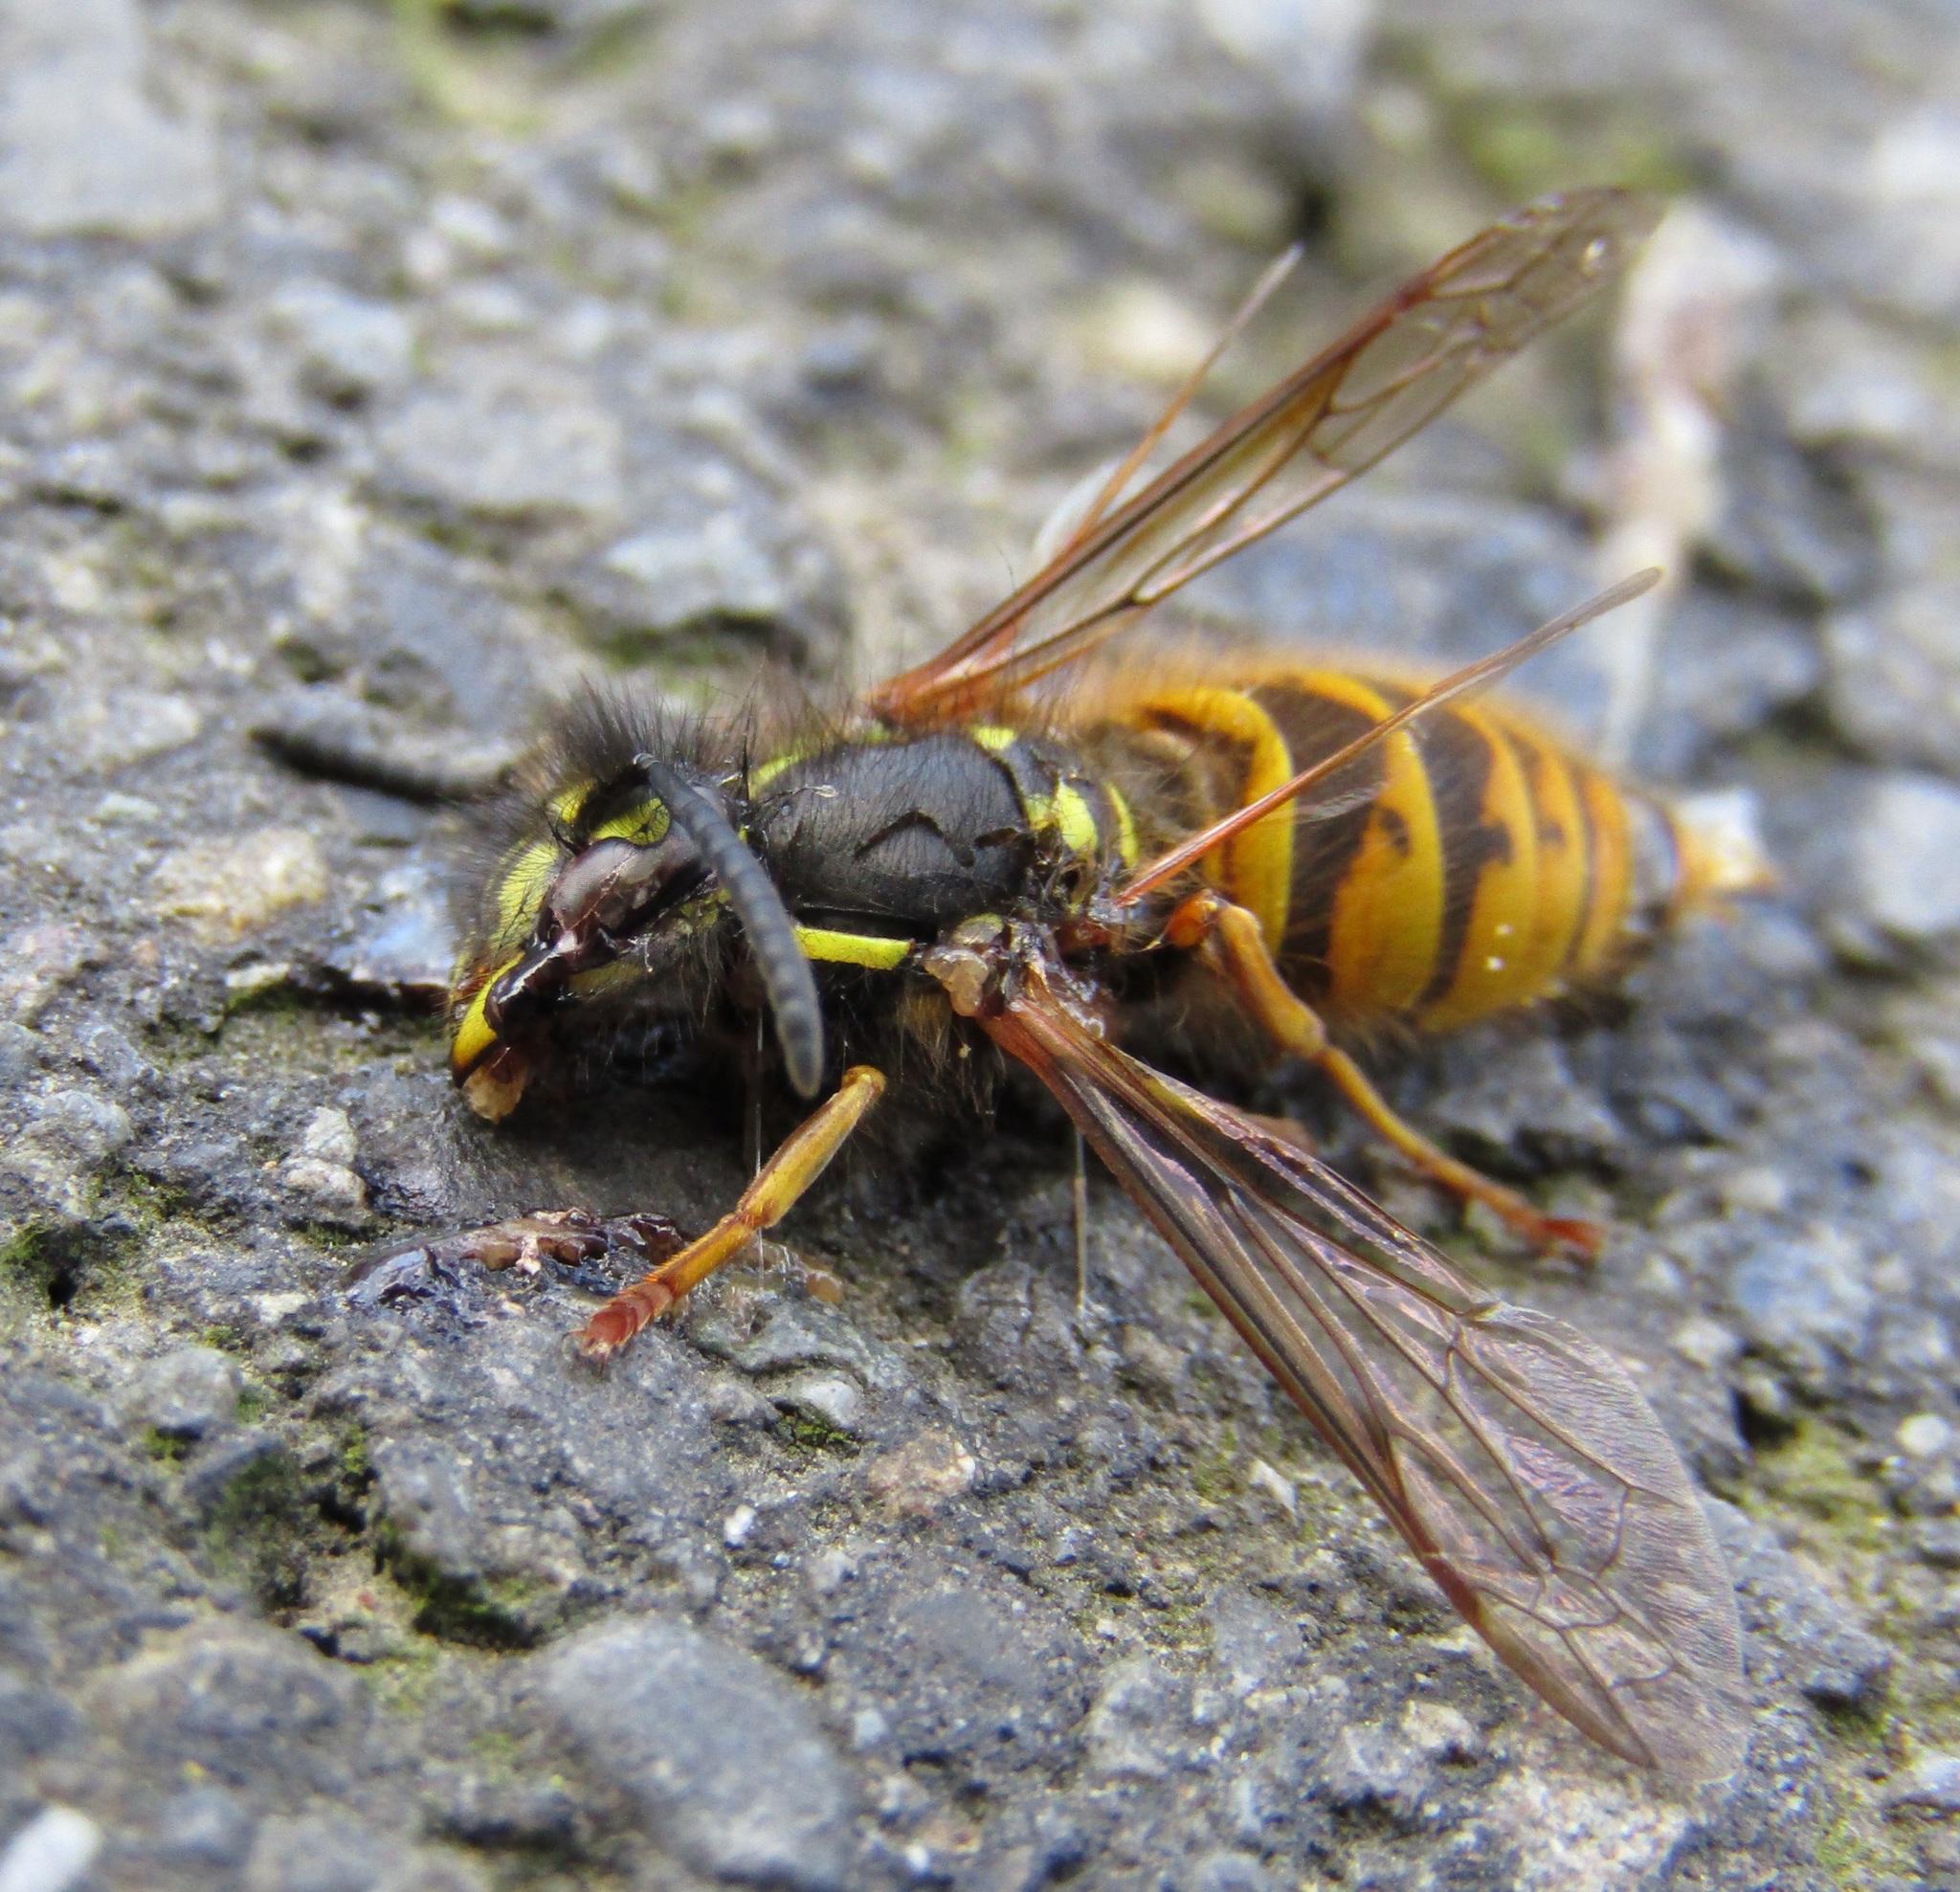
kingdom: Animalia
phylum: Arthropoda
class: Insecta
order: Hymenoptera
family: Vespidae
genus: Vespula
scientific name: Vespula vulgaris
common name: Common wasp
